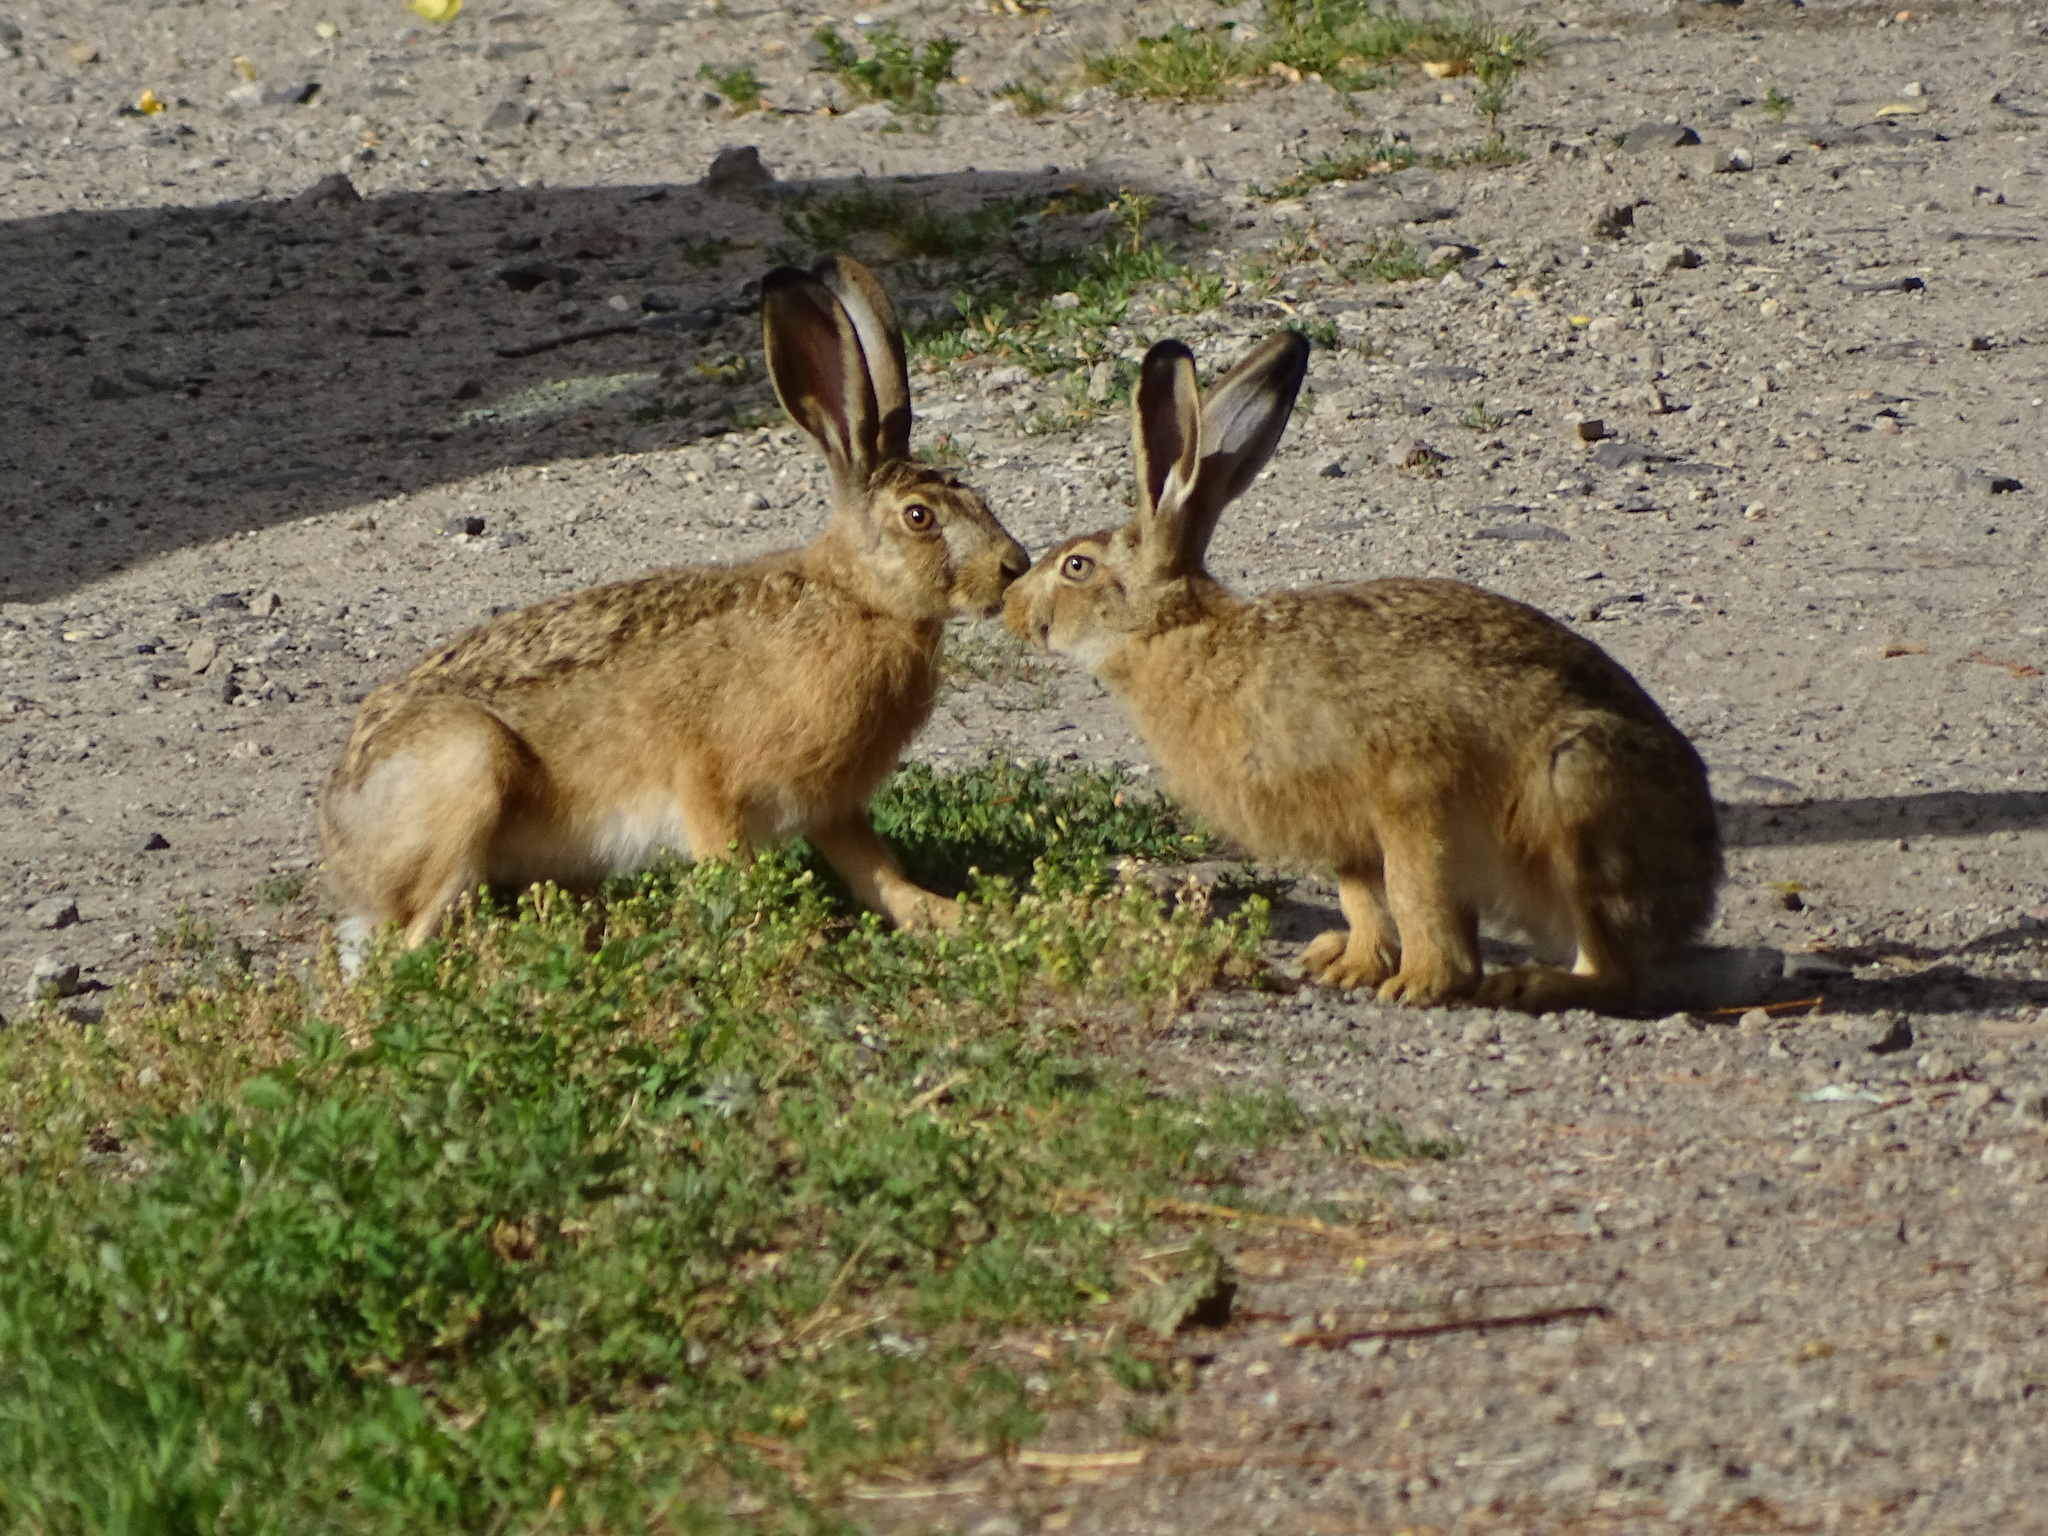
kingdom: Animalia
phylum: Chordata
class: Mammalia
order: Lagomorpha
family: Leporidae
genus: Lepus
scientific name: Lepus europaeus
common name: European hare
